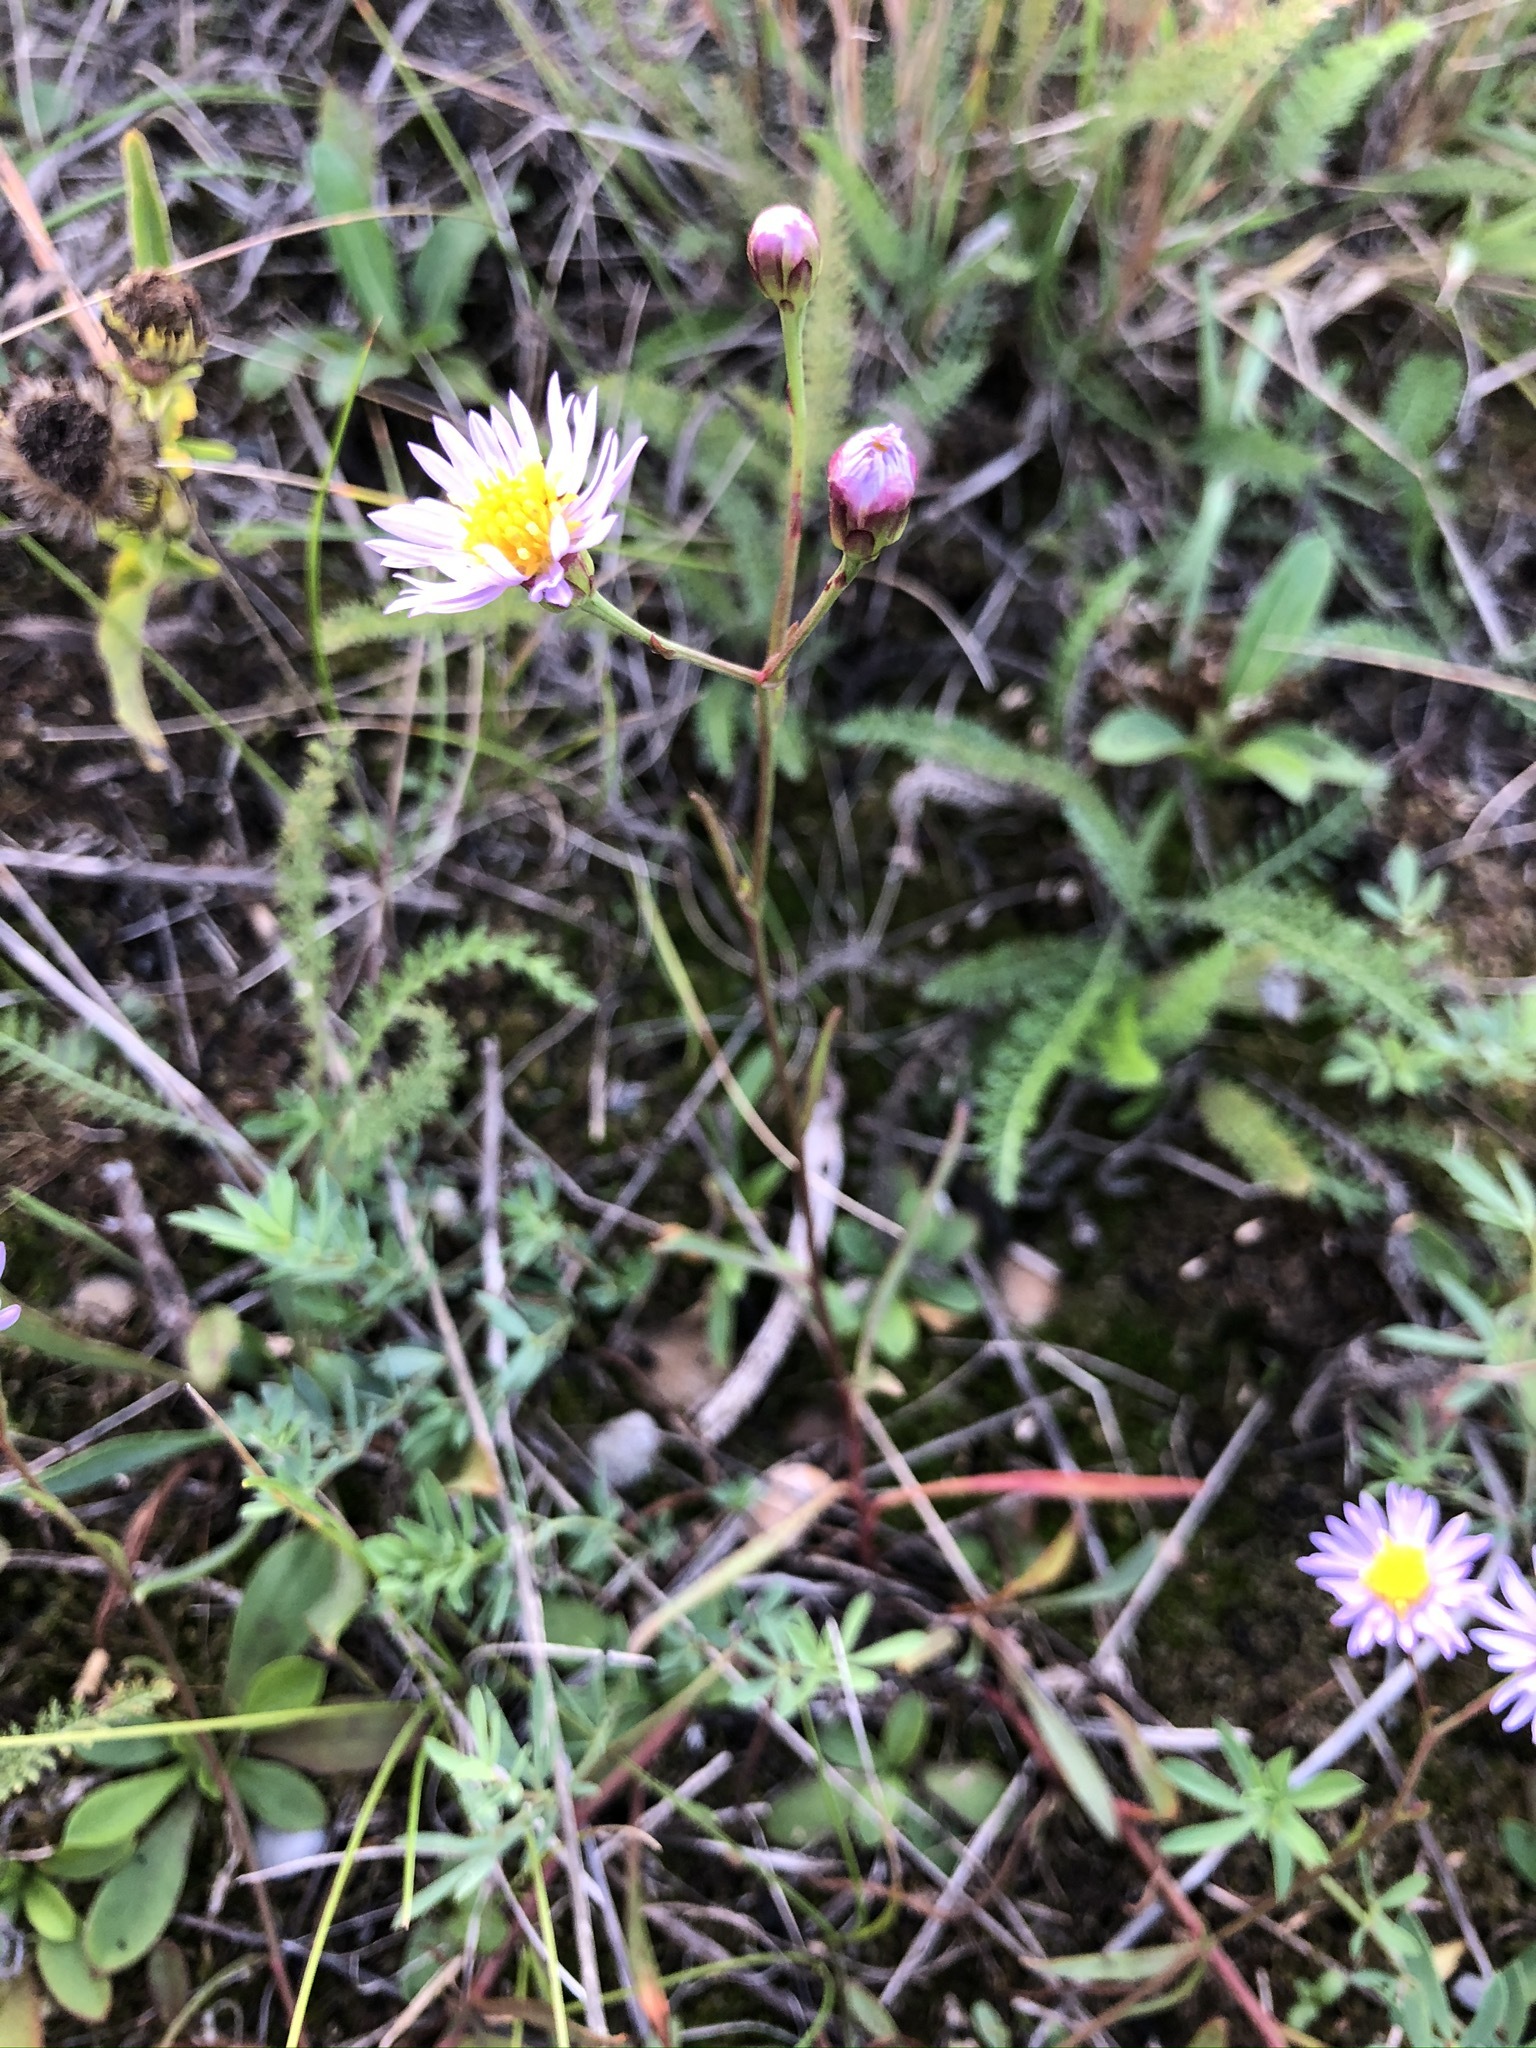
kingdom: Plantae
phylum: Tracheophyta
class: Magnoliopsida
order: Asterales
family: Asteraceae
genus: Tripolium
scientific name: Tripolium pannonicum
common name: Sea aster
